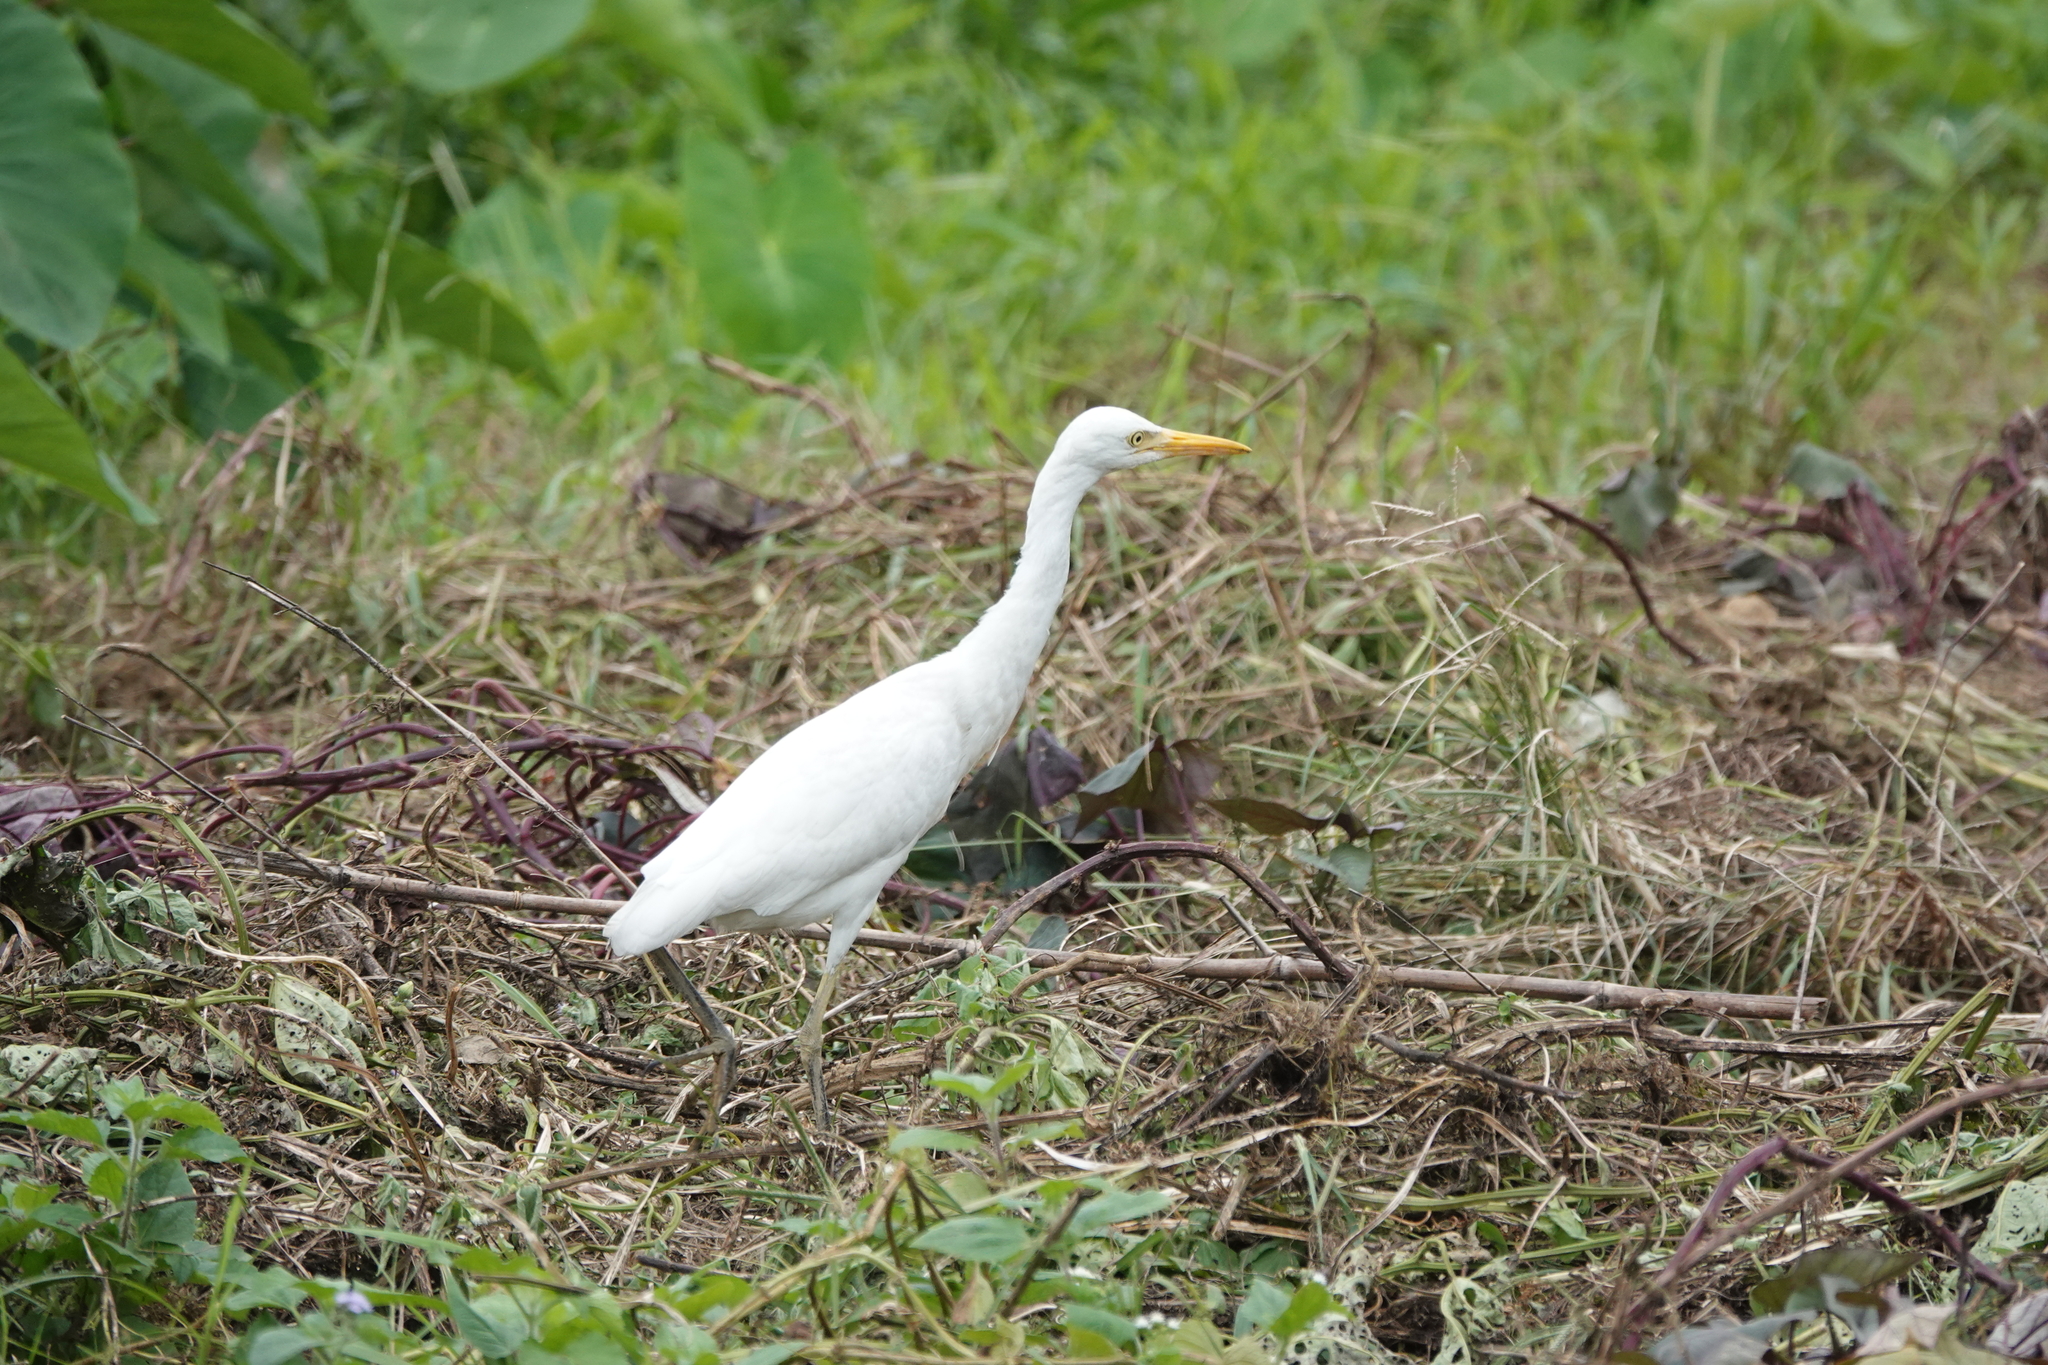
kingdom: Animalia
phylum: Chordata
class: Aves
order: Pelecaniformes
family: Ardeidae
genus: Bubulcus
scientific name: Bubulcus coromandus
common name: Eastern cattle egret
